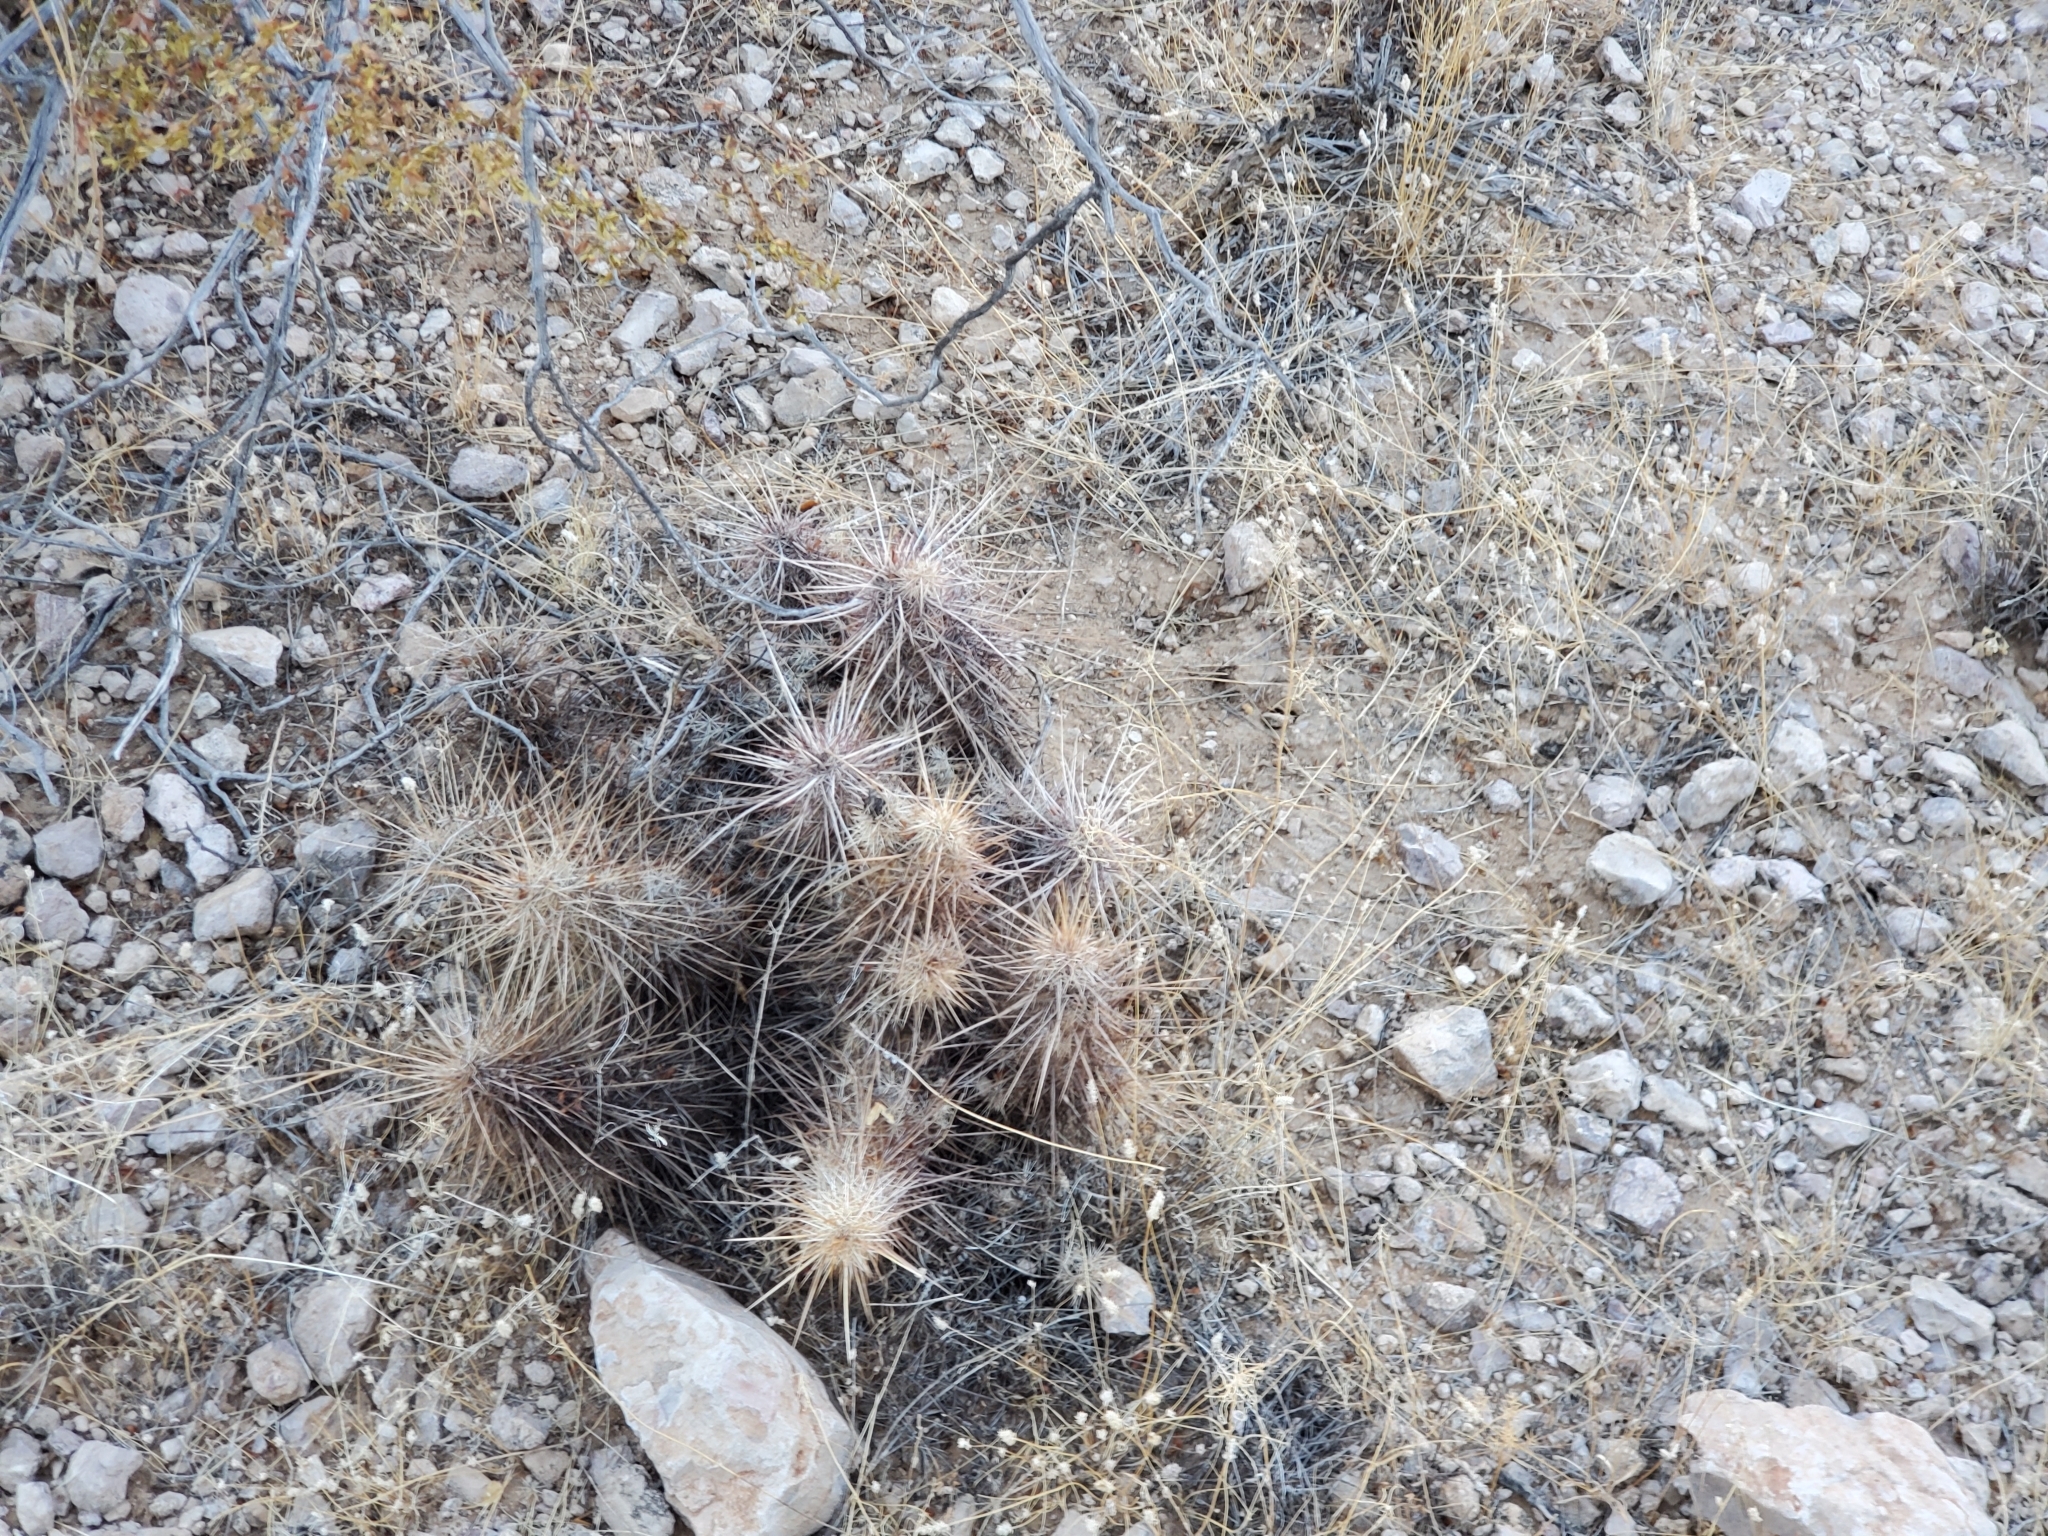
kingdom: Plantae
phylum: Tracheophyta
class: Magnoliopsida
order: Caryophyllales
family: Cactaceae
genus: Echinocereus
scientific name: Echinocereus engelmannii
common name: Engelmann's hedgehog cactus
